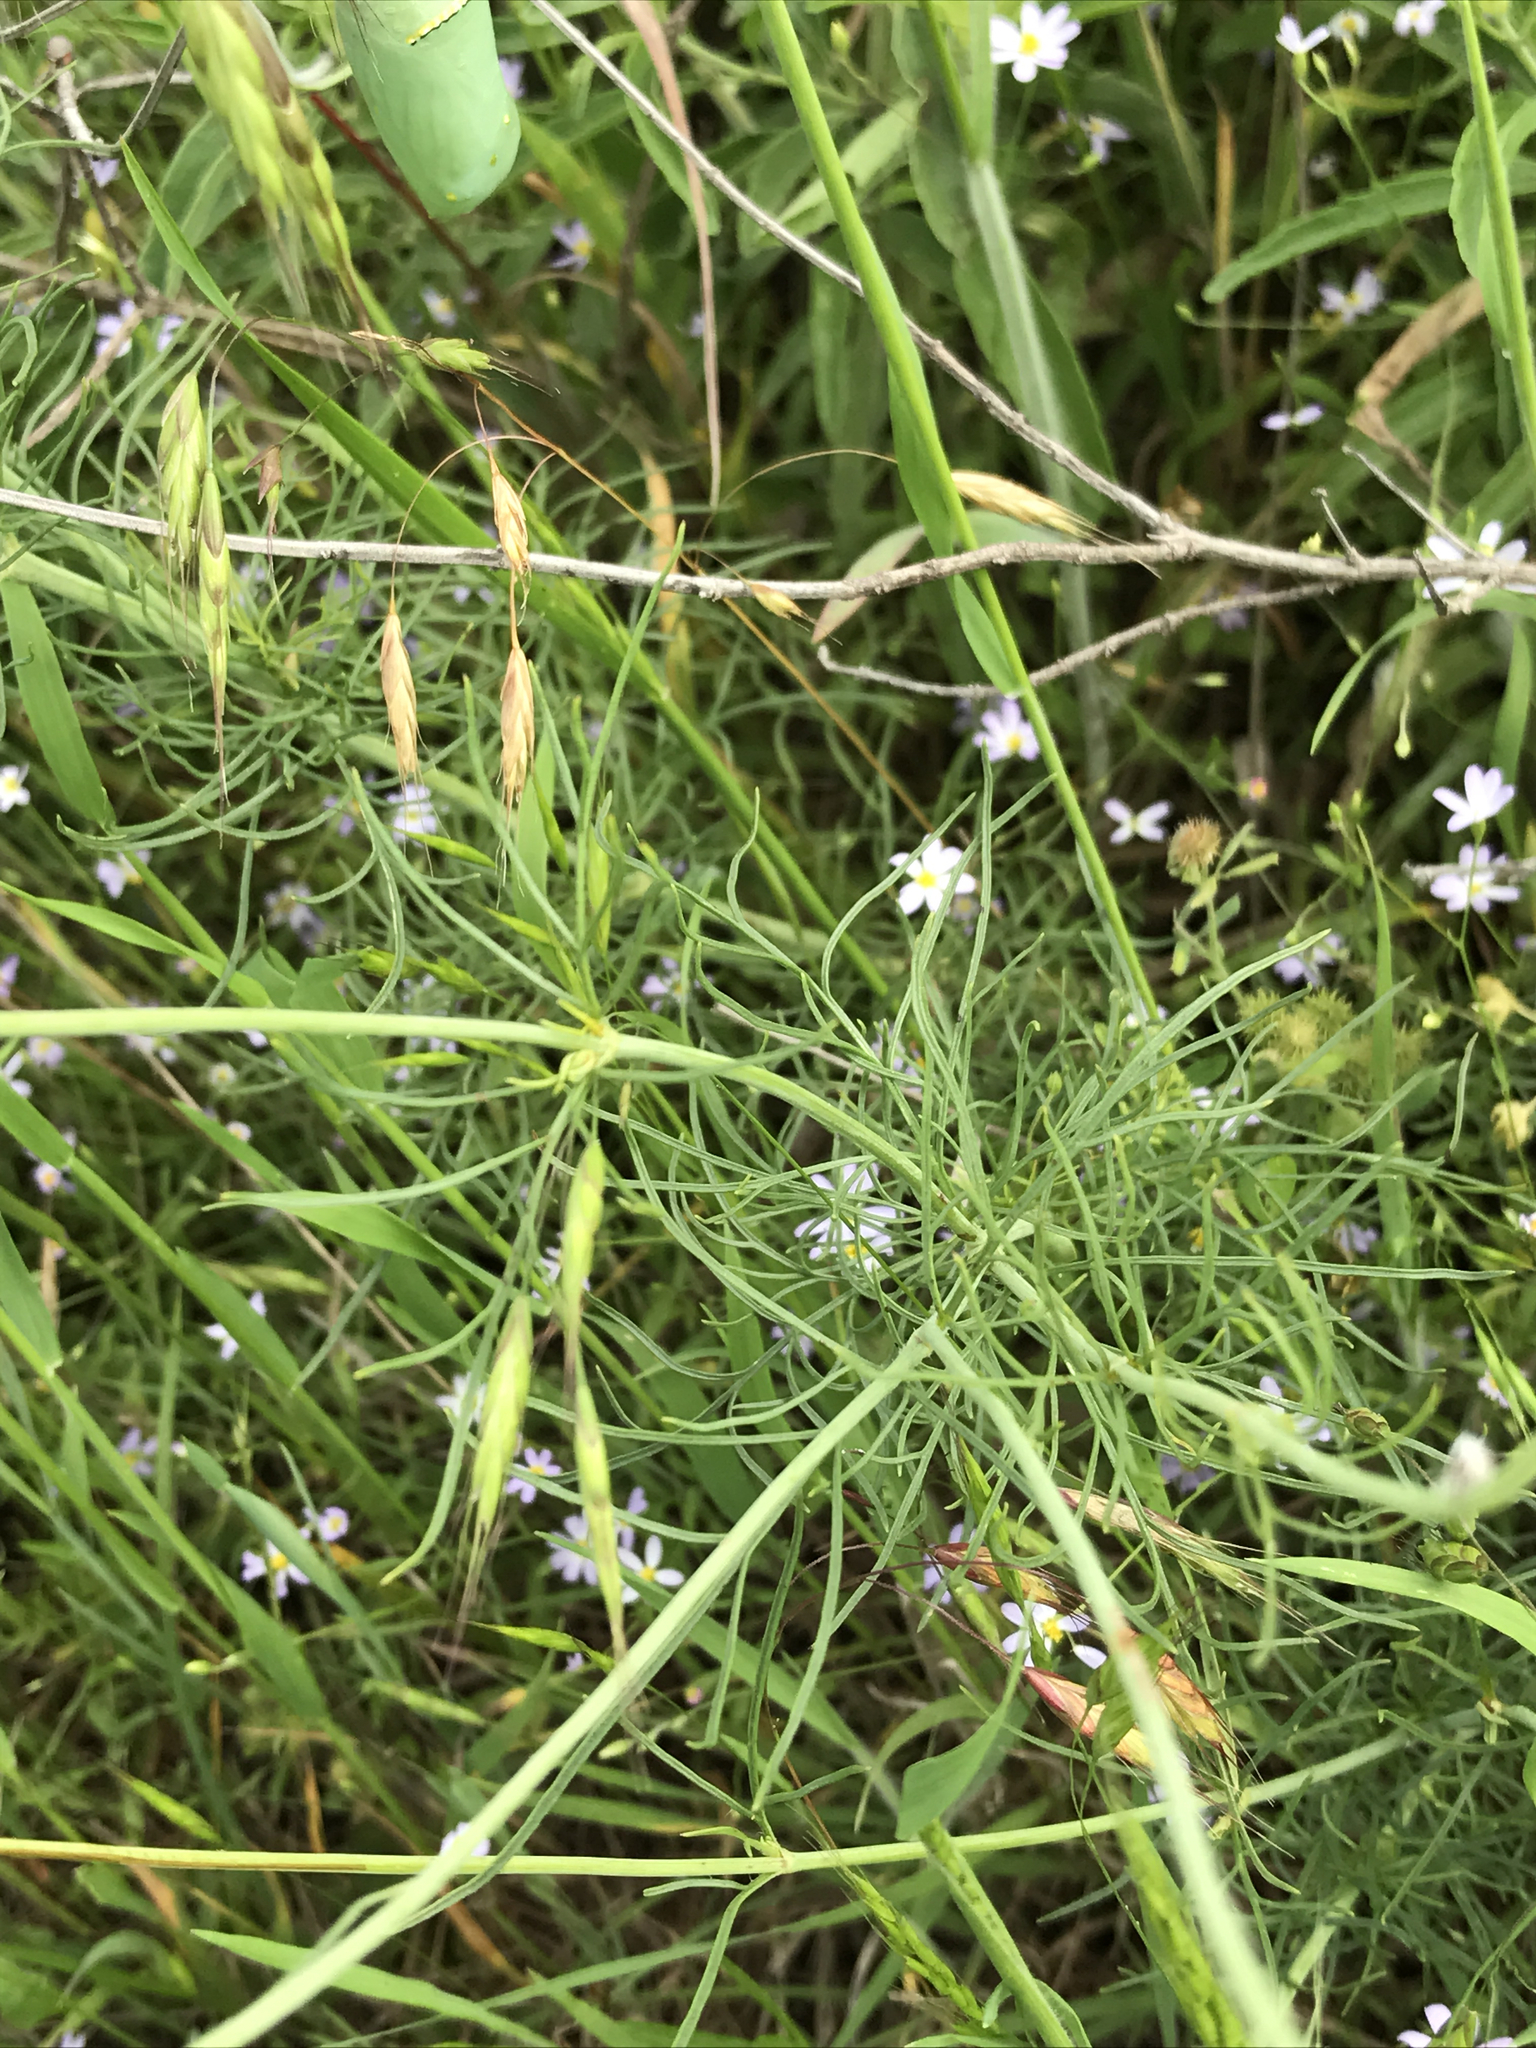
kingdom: Plantae
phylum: Tracheophyta
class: Magnoliopsida
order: Asterales
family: Asteraceae
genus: Thelesperma
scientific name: Thelesperma filifolium
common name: Stiff greenthread
